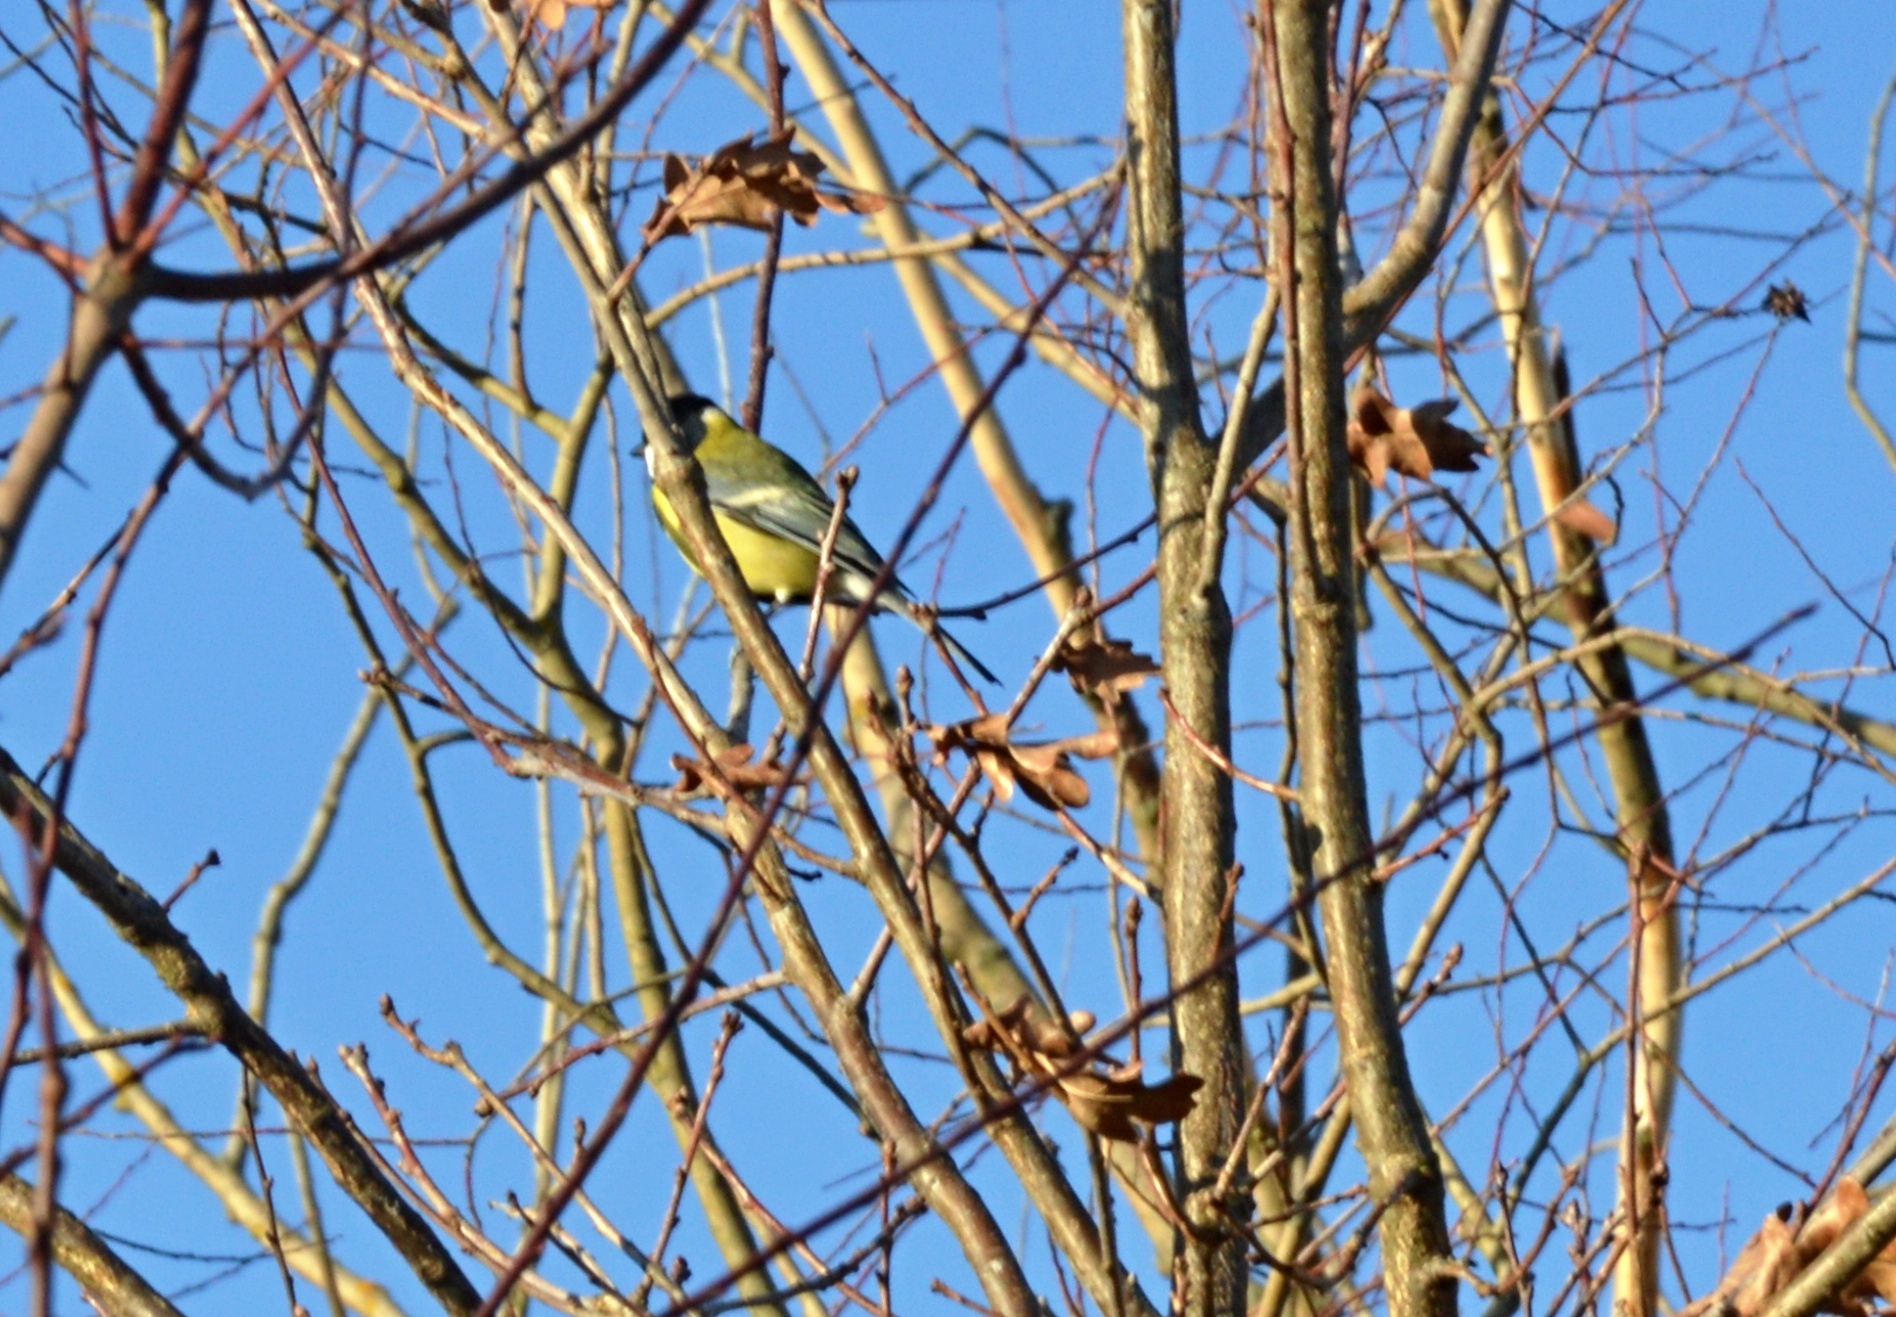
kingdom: Animalia
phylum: Chordata
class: Aves
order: Passeriformes
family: Paridae
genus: Parus
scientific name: Parus major
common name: Great tit
